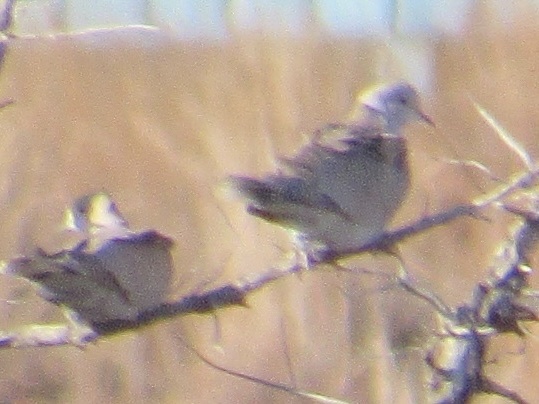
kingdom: Animalia
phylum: Chordata
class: Aves
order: Columbiformes
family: Columbidae
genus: Streptopelia
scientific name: Streptopelia decaocto
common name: Eurasian collared dove
